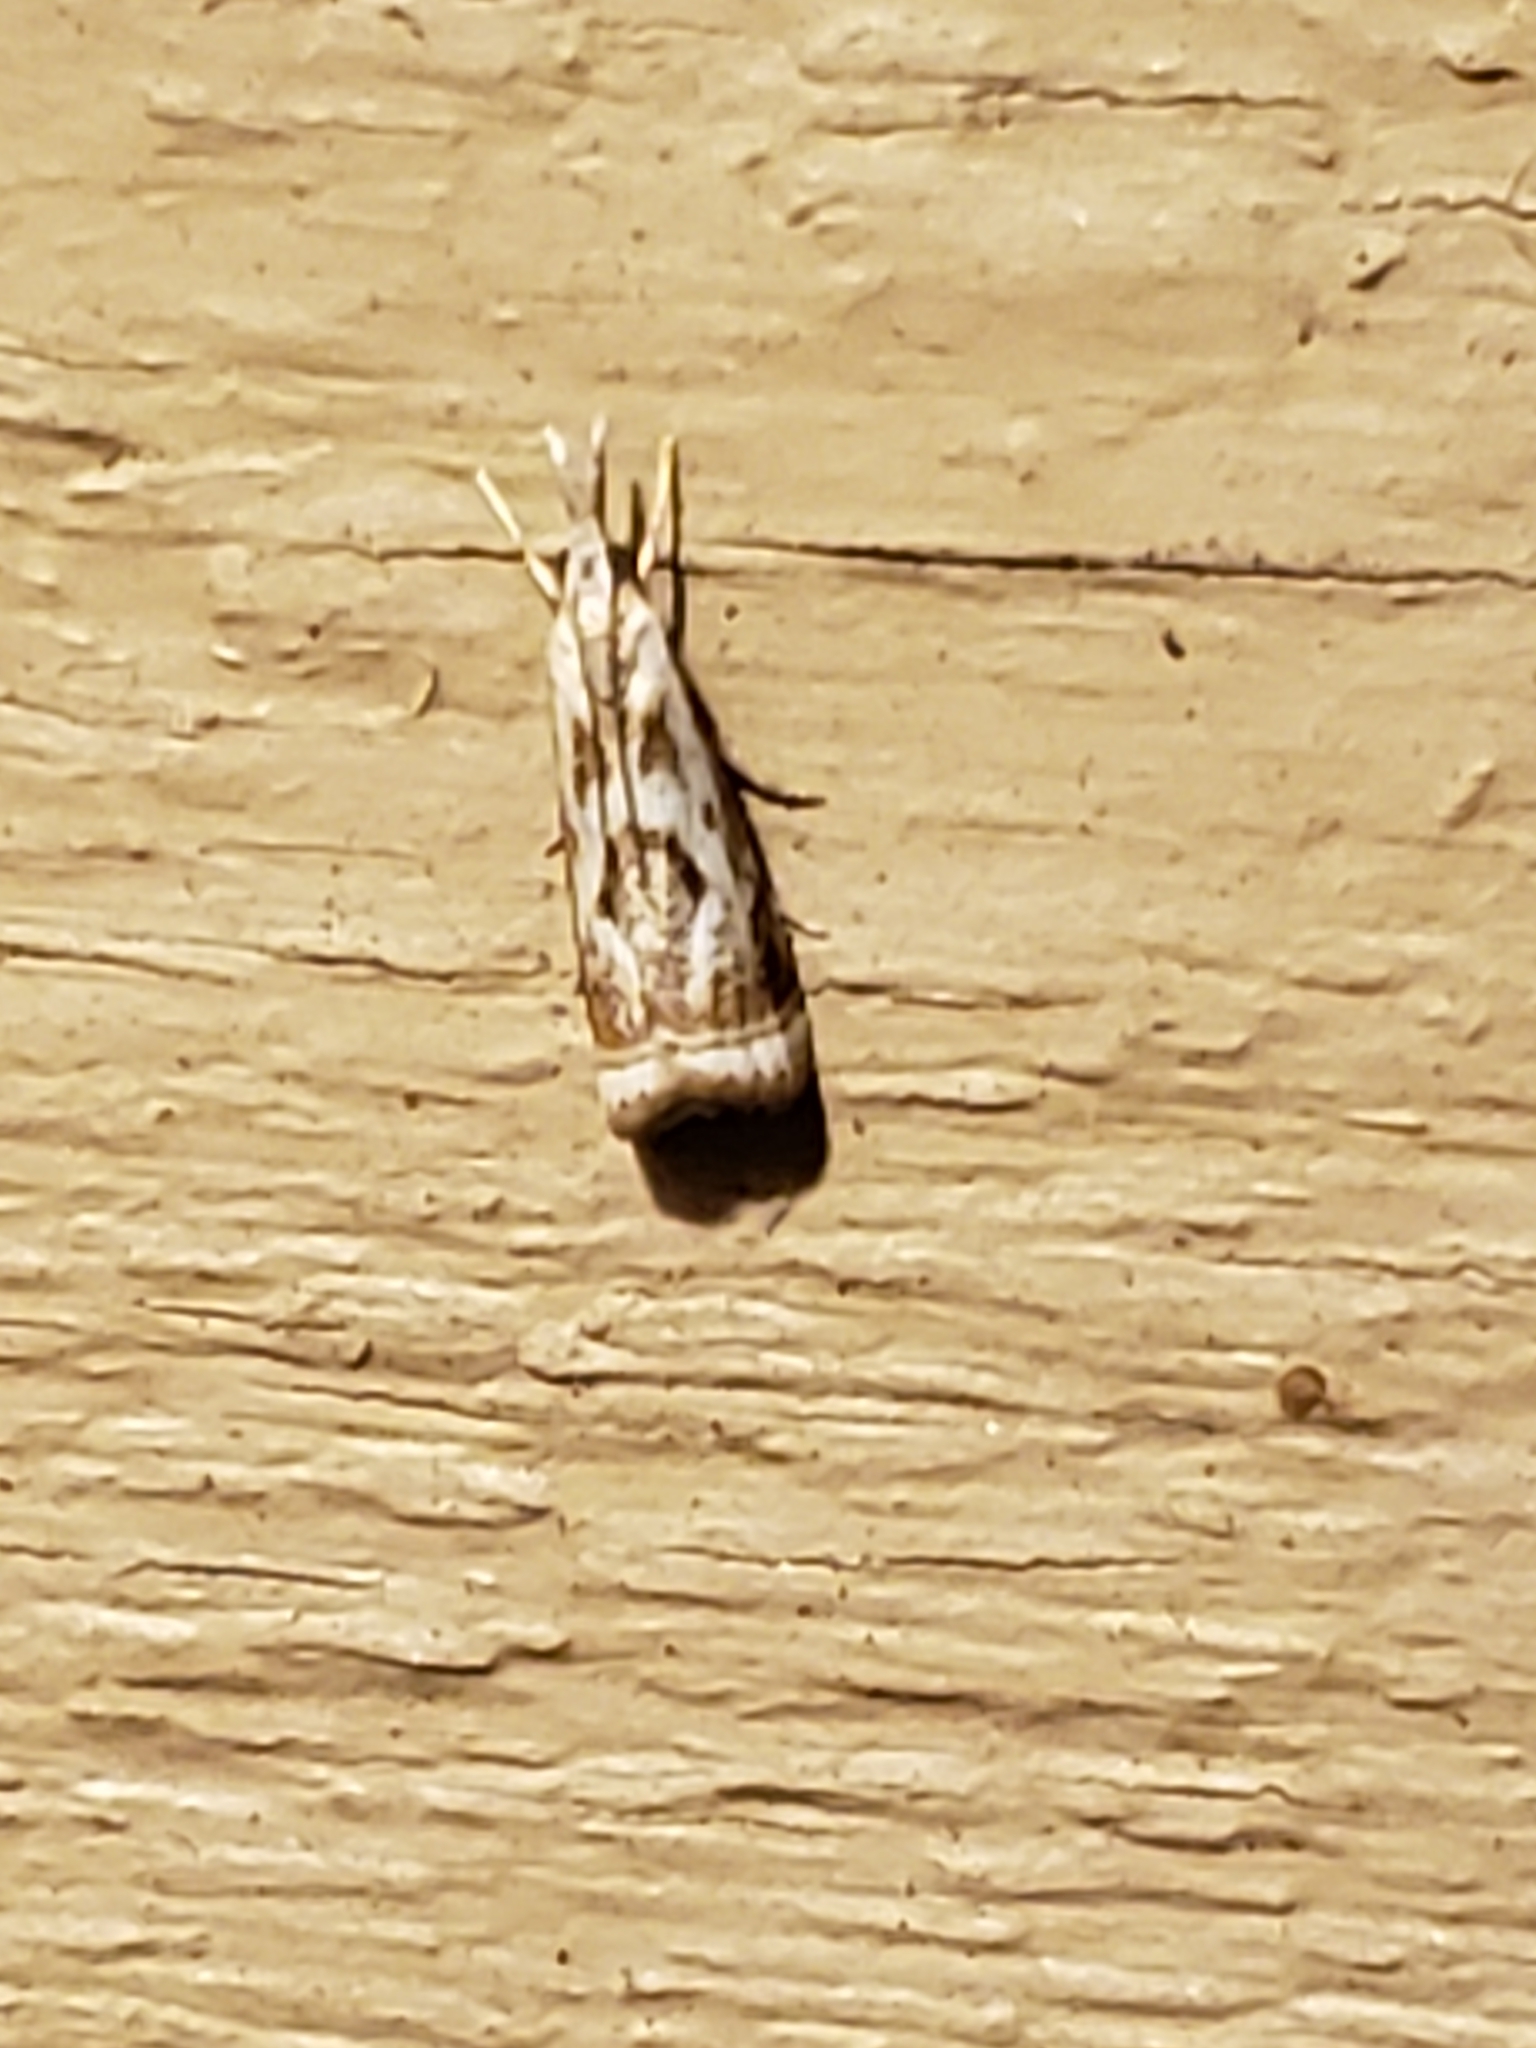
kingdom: Animalia
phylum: Arthropoda
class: Insecta
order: Lepidoptera
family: Crambidae
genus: Microcrambus
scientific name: Microcrambus elegans
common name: Elegant grass-veneer
